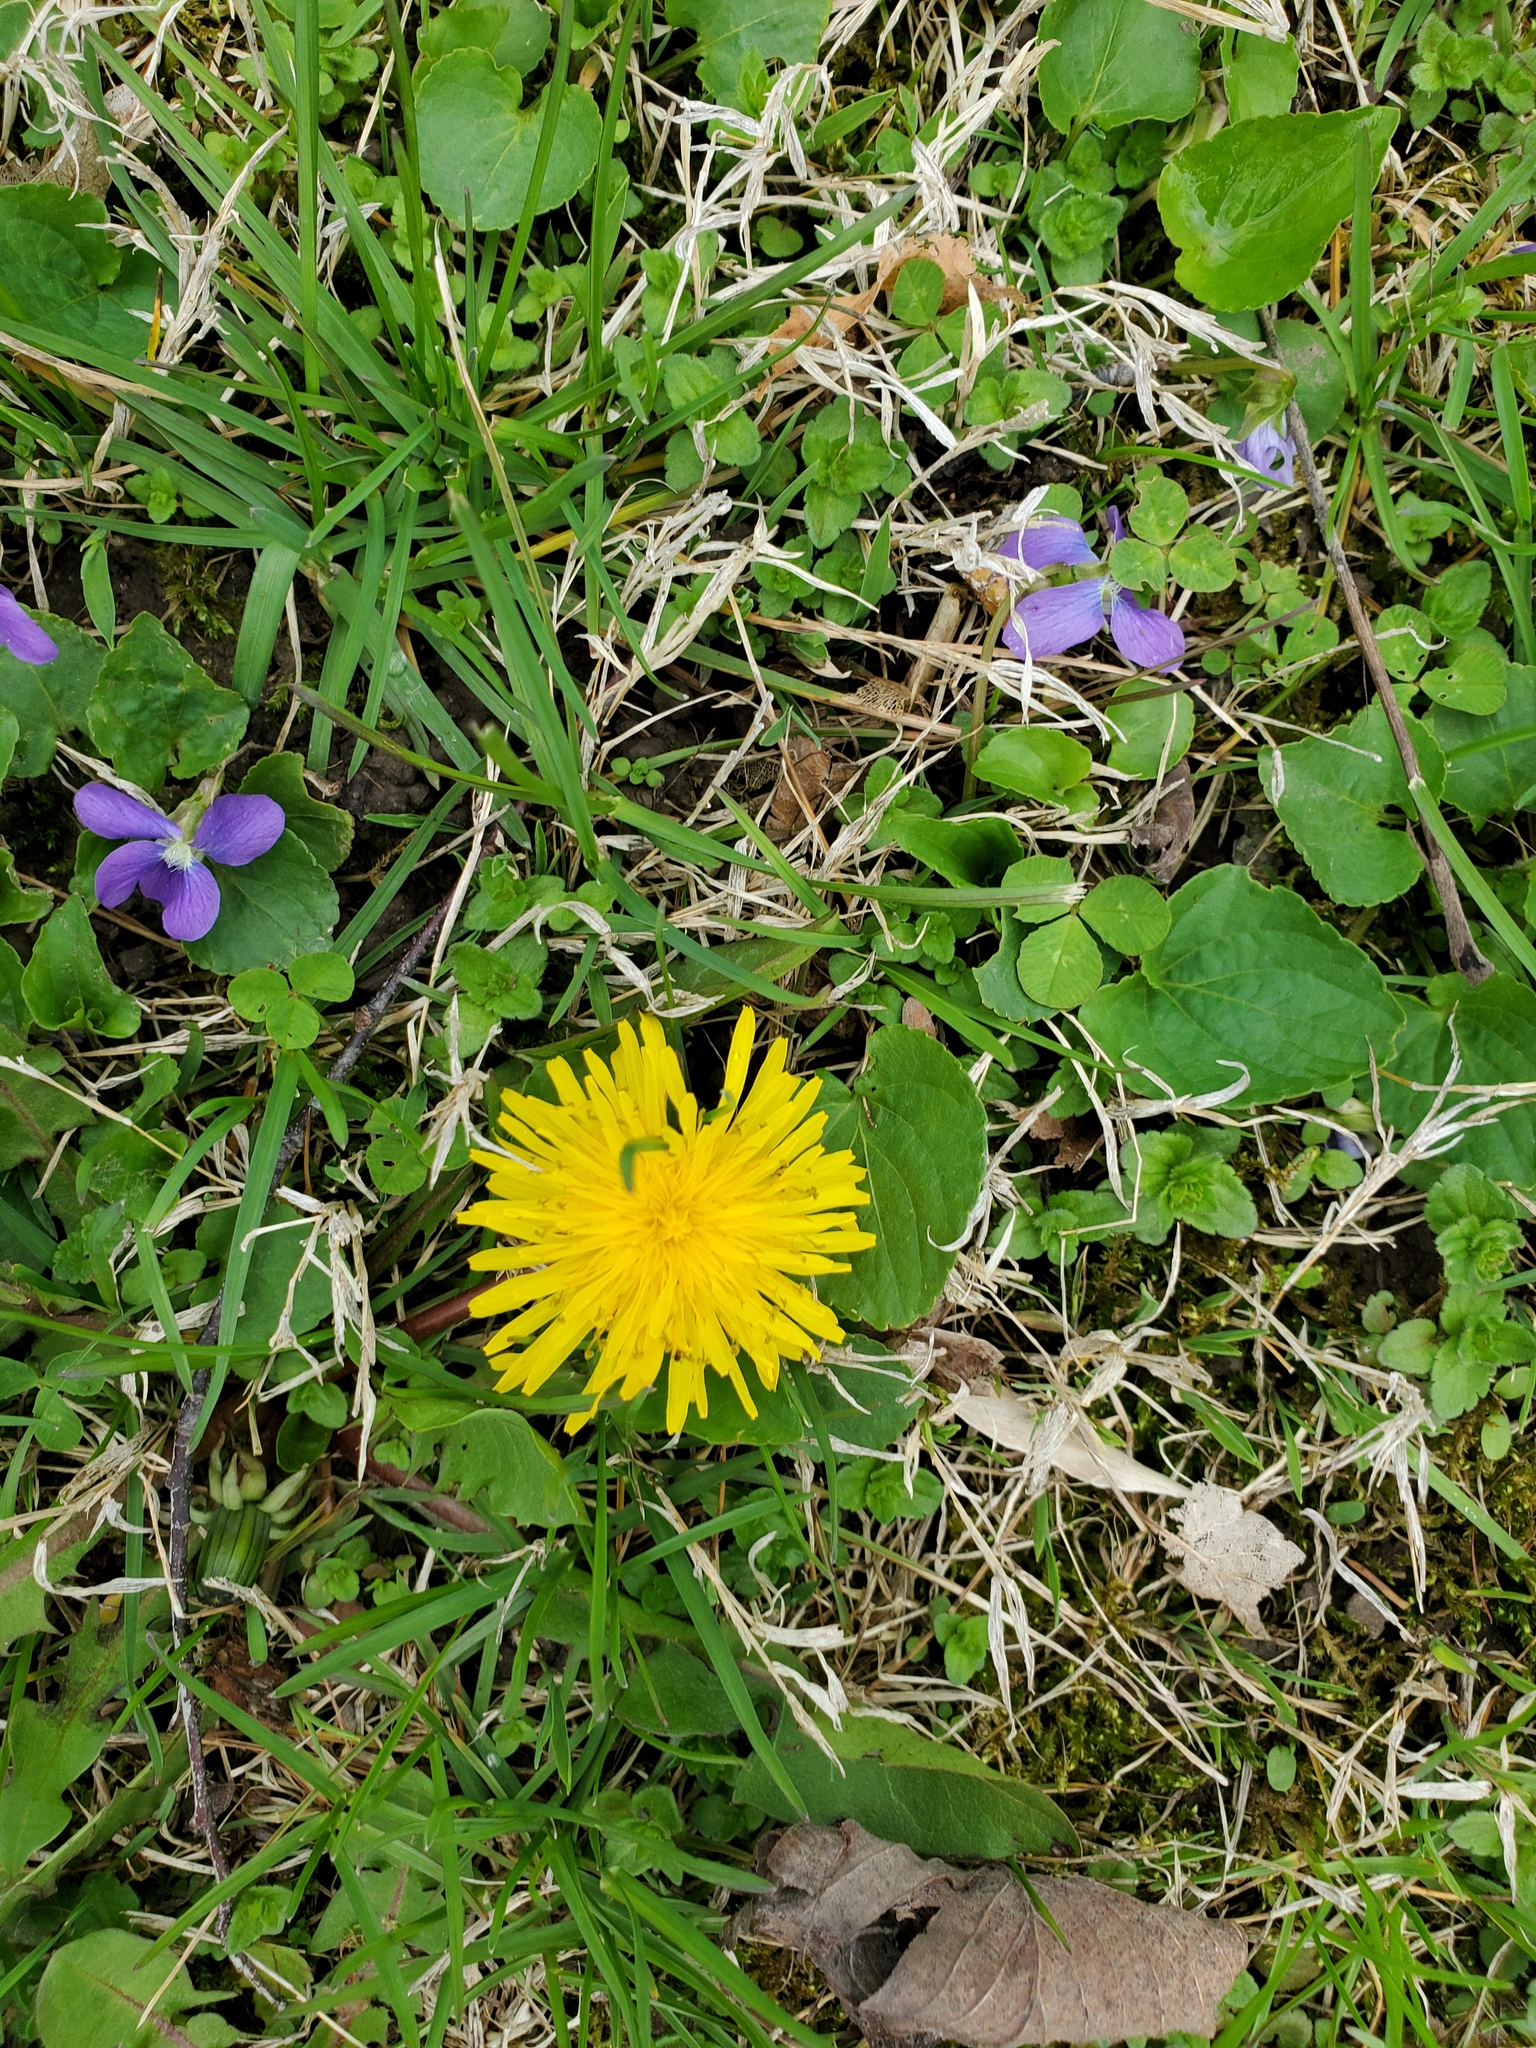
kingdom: Plantae
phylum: Tracheophyta
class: Magnoliopsida
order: Asterales
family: Asteraceae
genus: Taraxacum
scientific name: Taraxacum officinale
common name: Common dandelion
